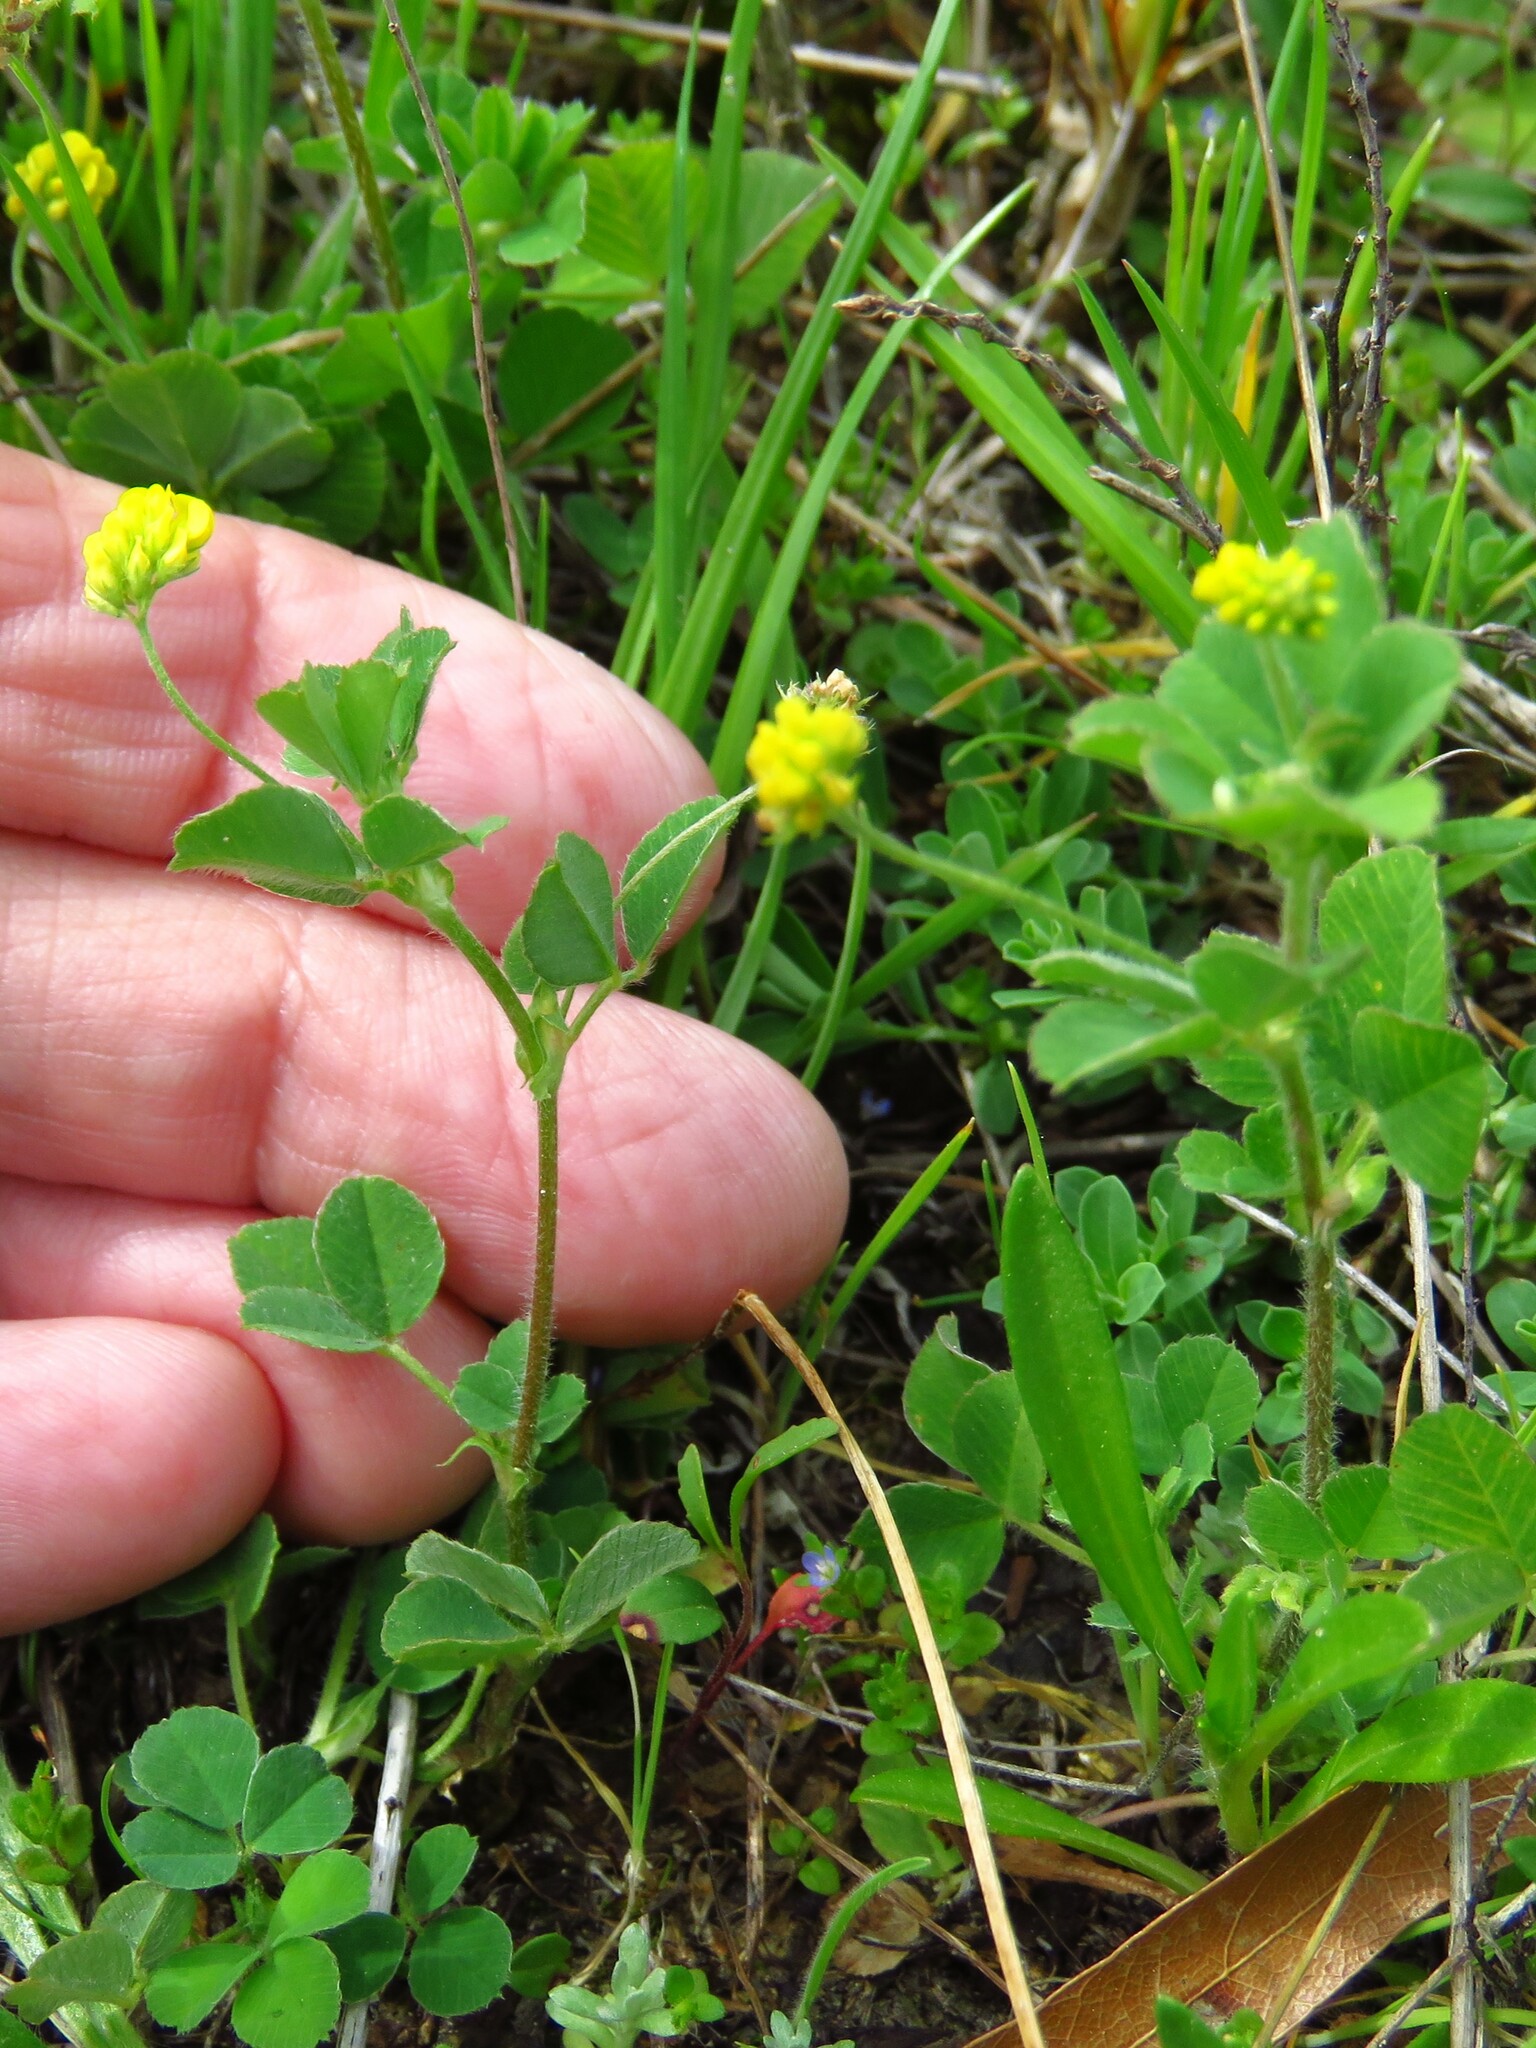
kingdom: Plantae
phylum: Tracheophyta
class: Magnoliopsida
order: Fabales
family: Fabaceae
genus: Medicago
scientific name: Medicago lupulina
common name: Black medick
